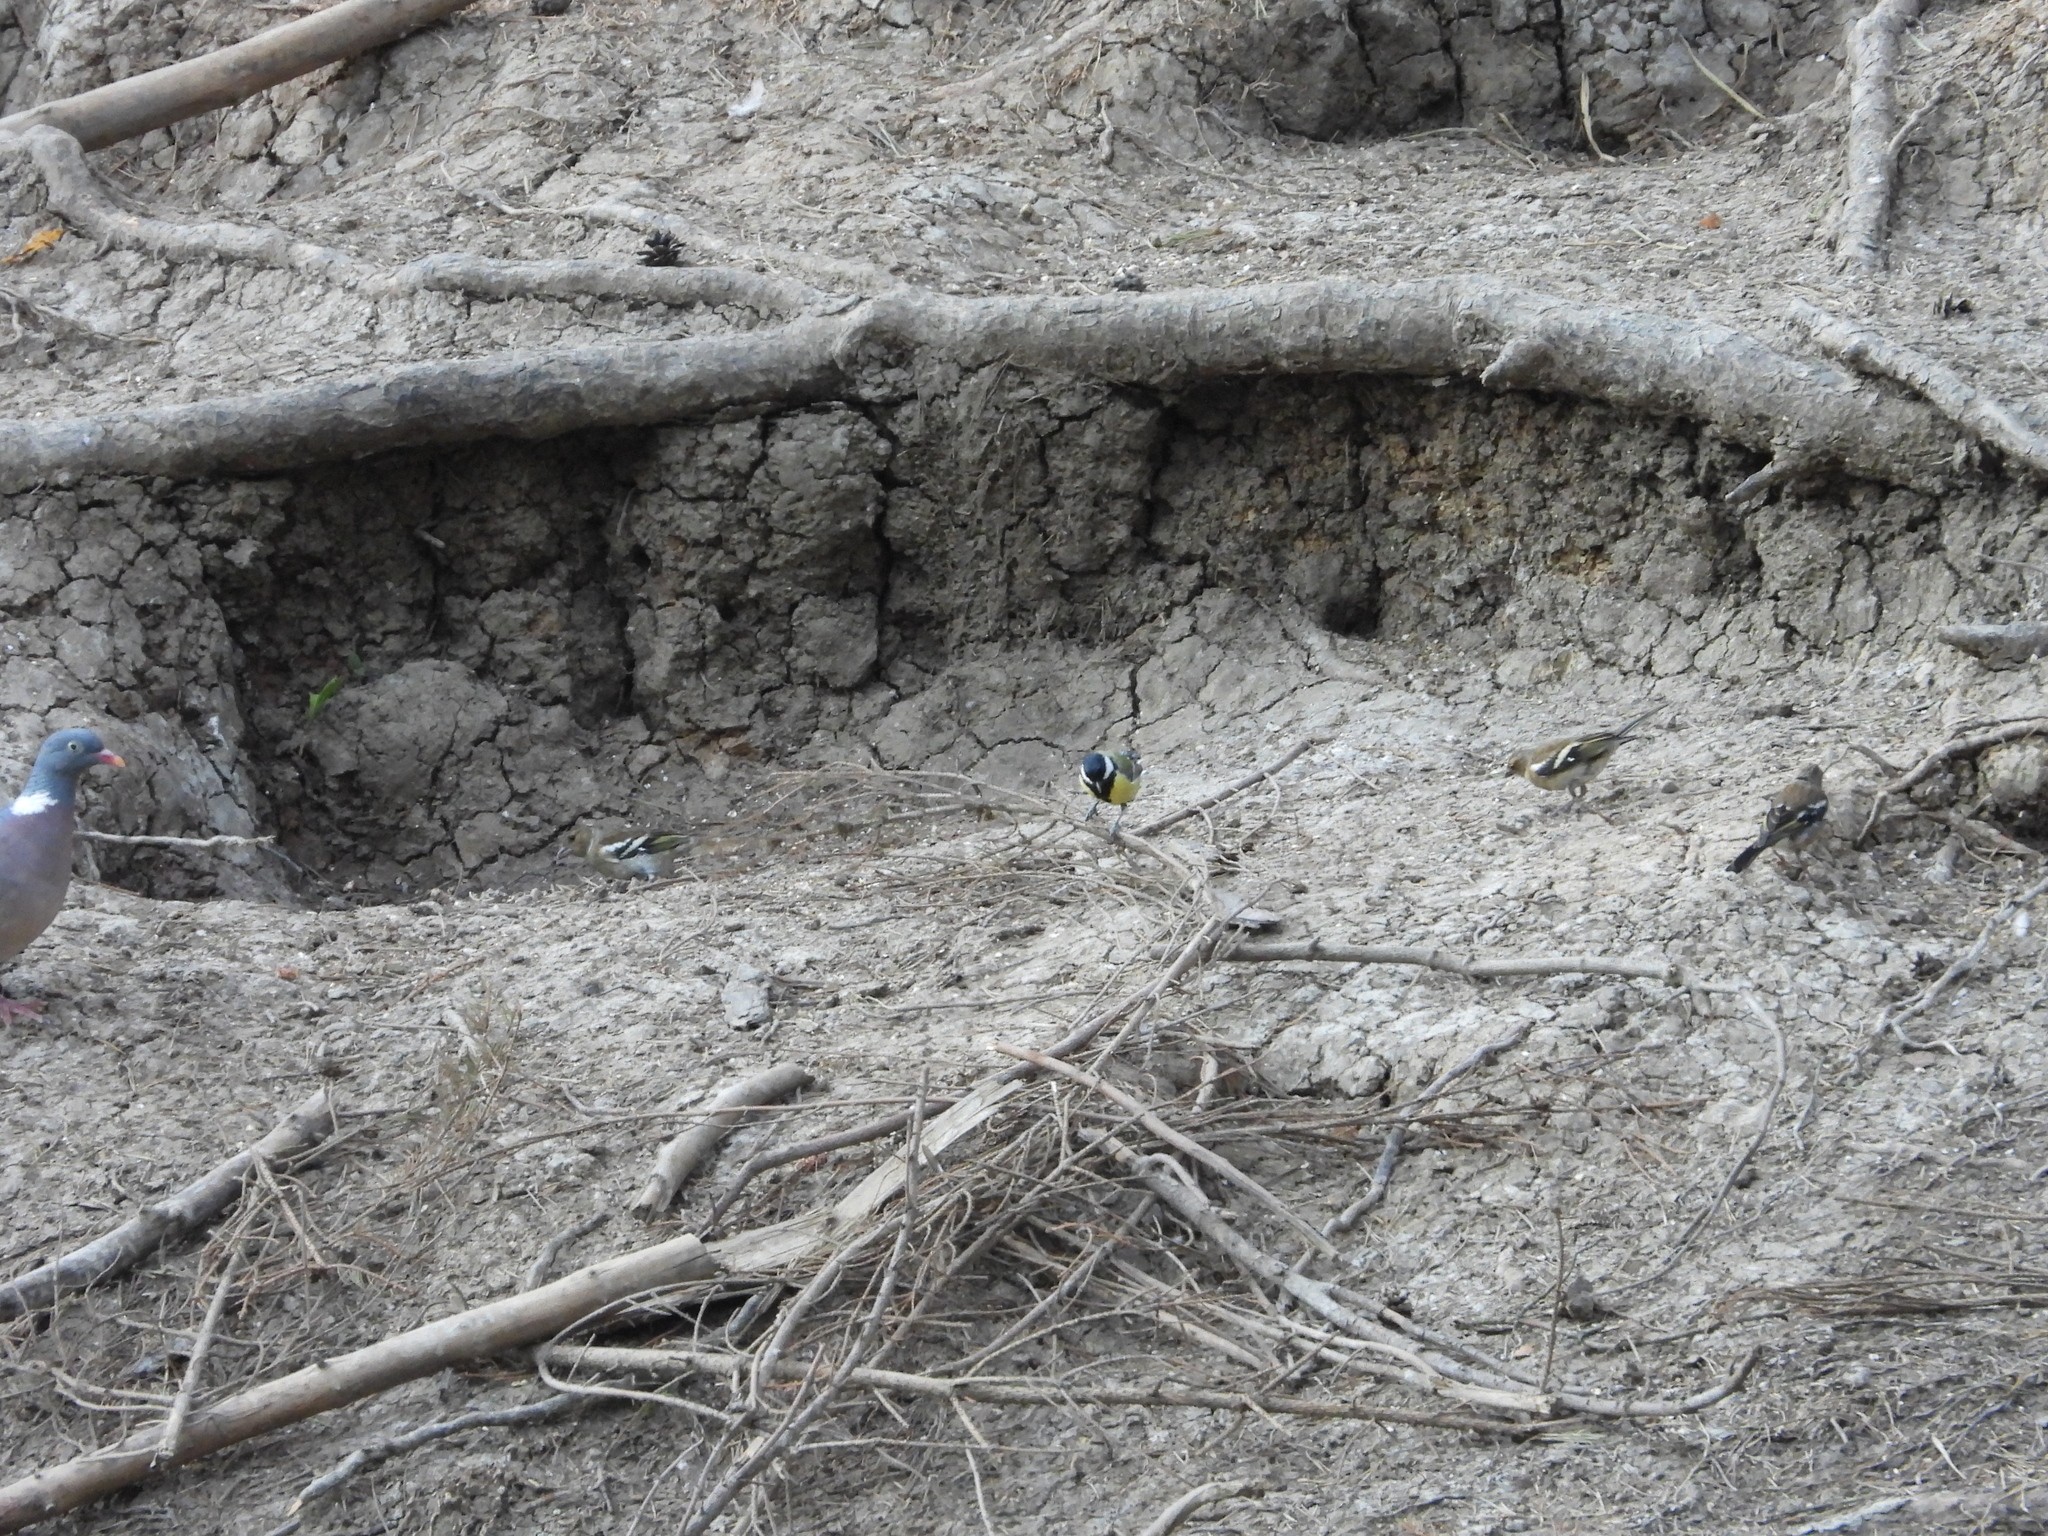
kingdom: Animalia
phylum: Chordata
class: Aves
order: Passeriformes
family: Paridae
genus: Parus
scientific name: Parus major
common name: Great tit
